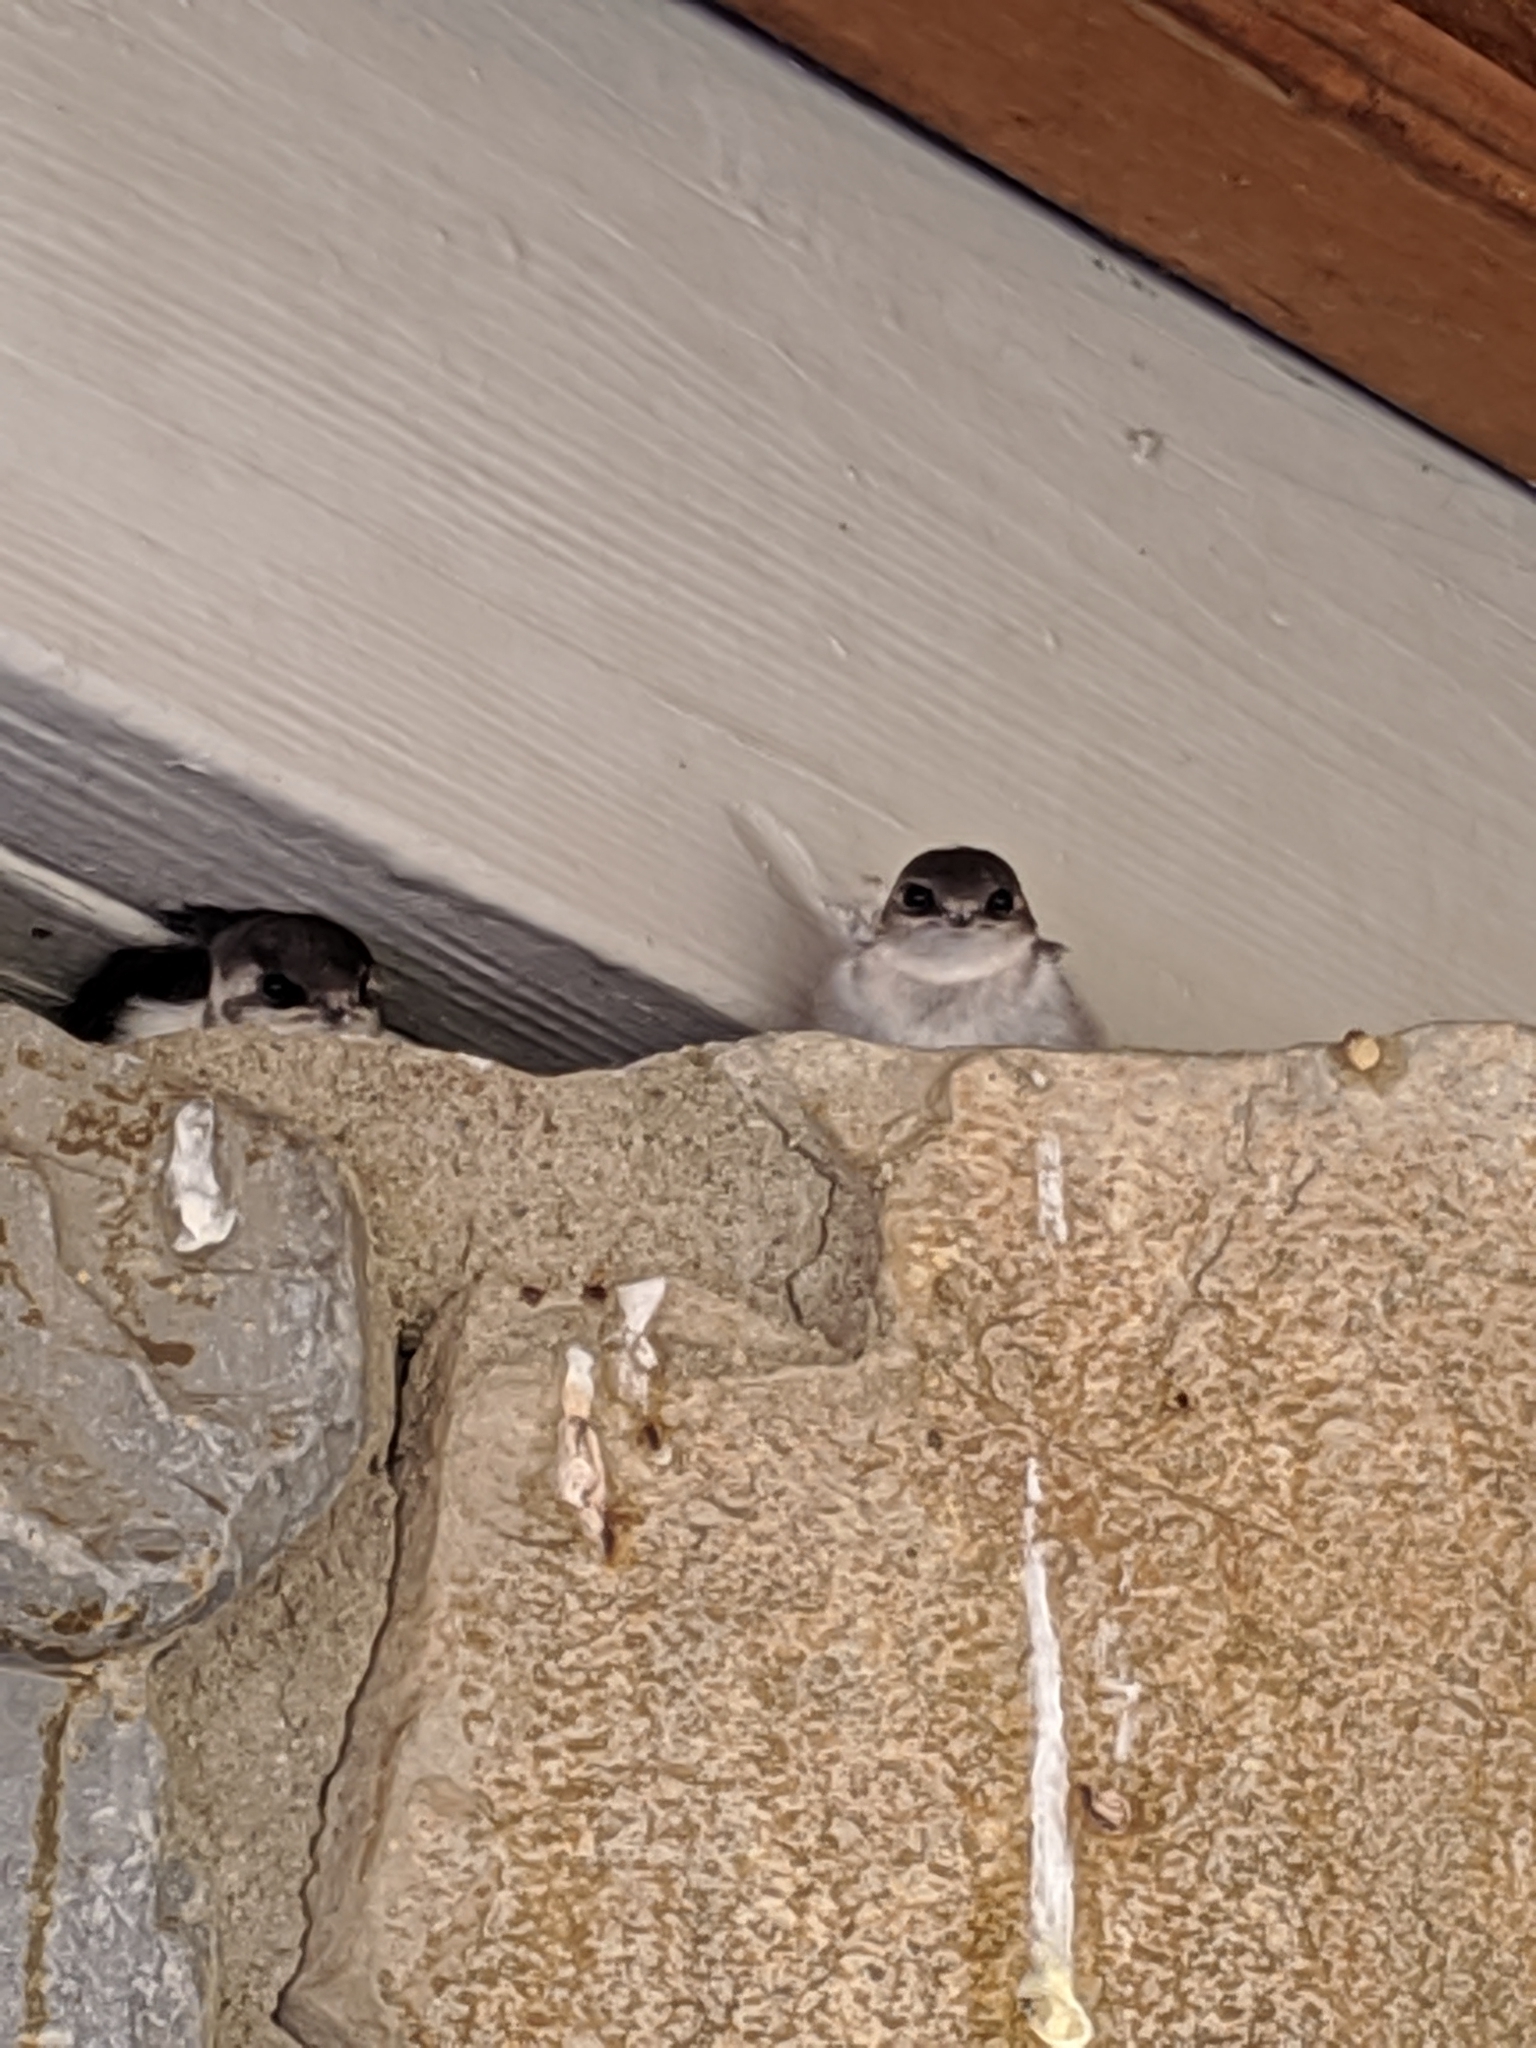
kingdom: Animalia
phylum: Chordata
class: Aves
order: Passeriformes
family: Hirundinidae
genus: Tachycineta
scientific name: Tachycineta thalassina
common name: Violet-green swallow
